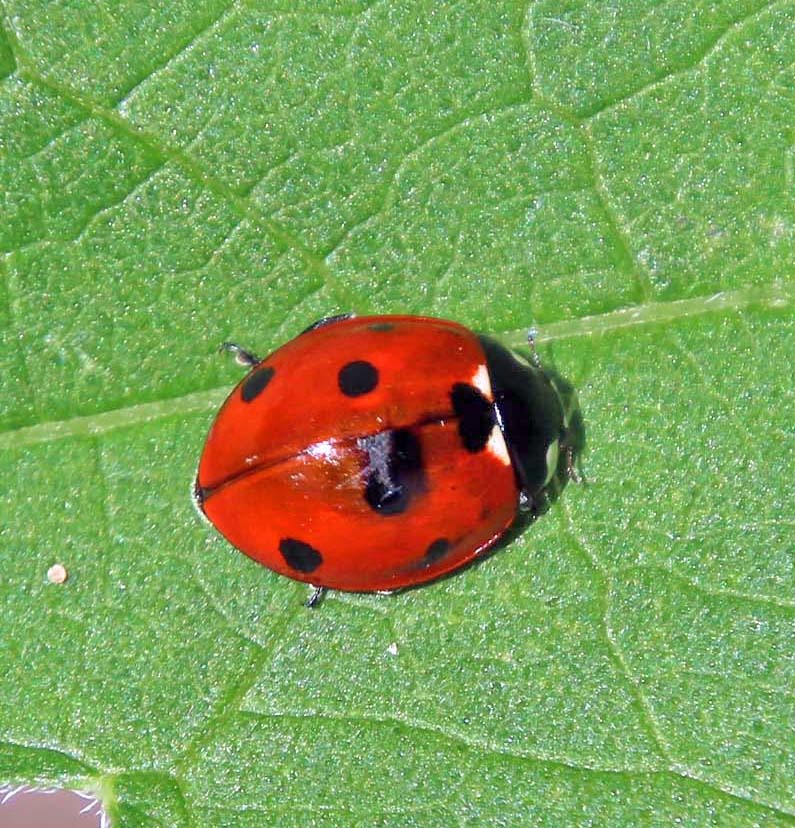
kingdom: Animalia
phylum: Arthropoda
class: Insecta
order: Coleoptera
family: Coccinellidae
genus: Coccinella
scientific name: Coccinella septempunctata
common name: Sevenspotted lady beetle
